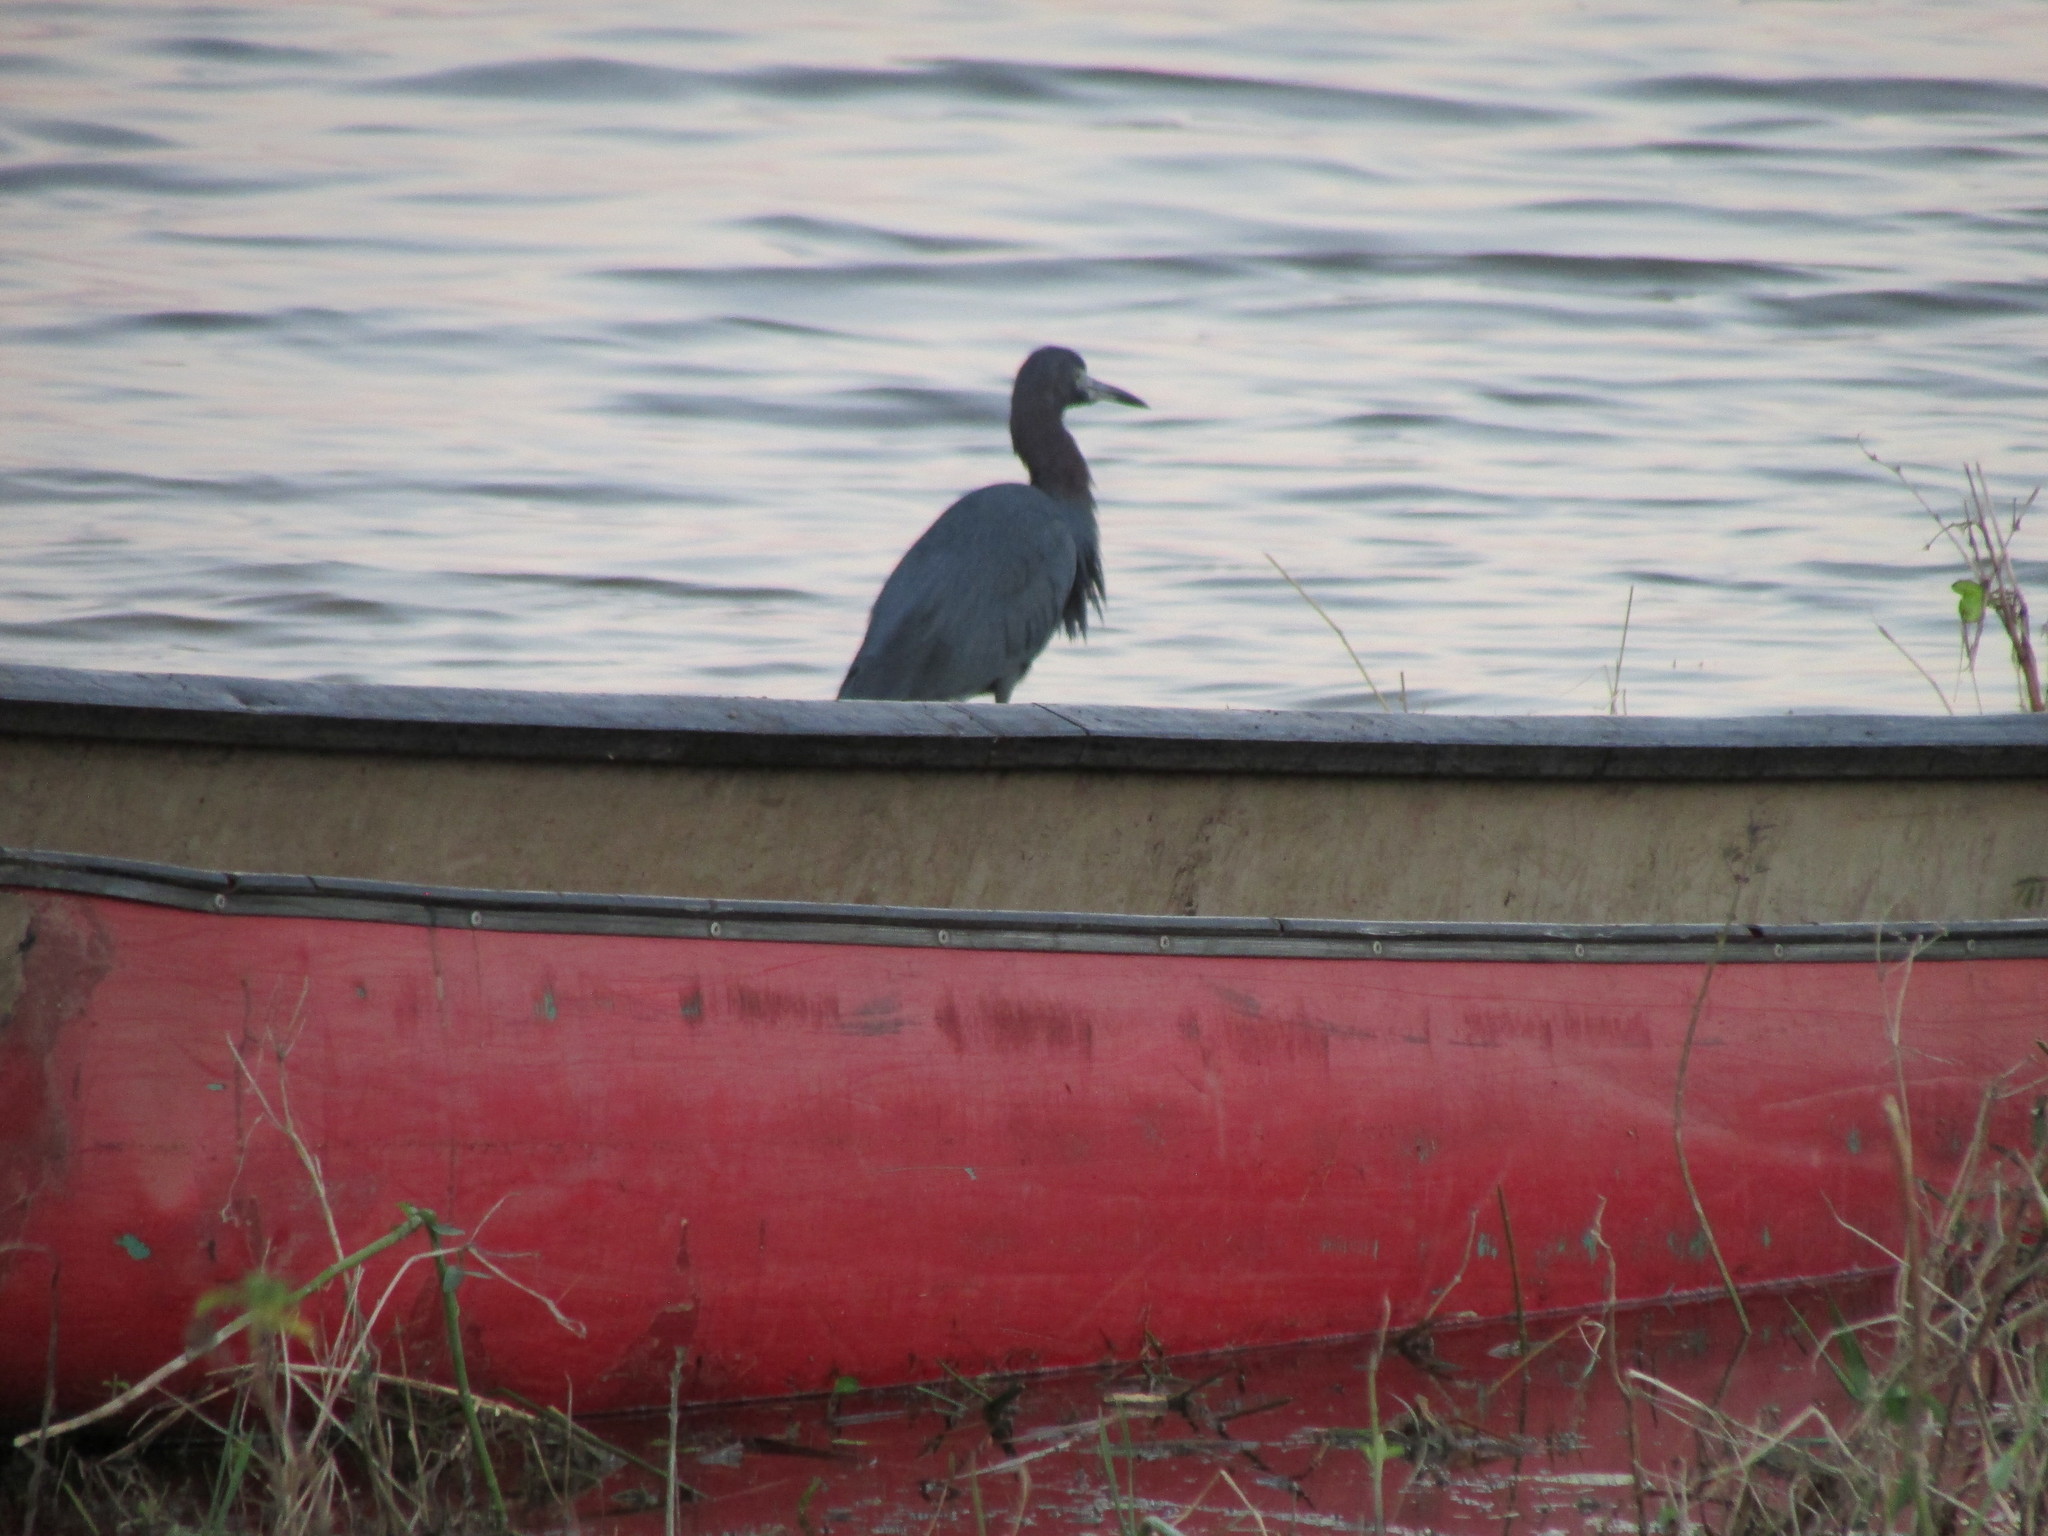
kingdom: Animalia
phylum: Chordata
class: Aves
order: Pelecaniformes
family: Ardeidae
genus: Egretta
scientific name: Egretta caerulea
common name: Little blue heron
